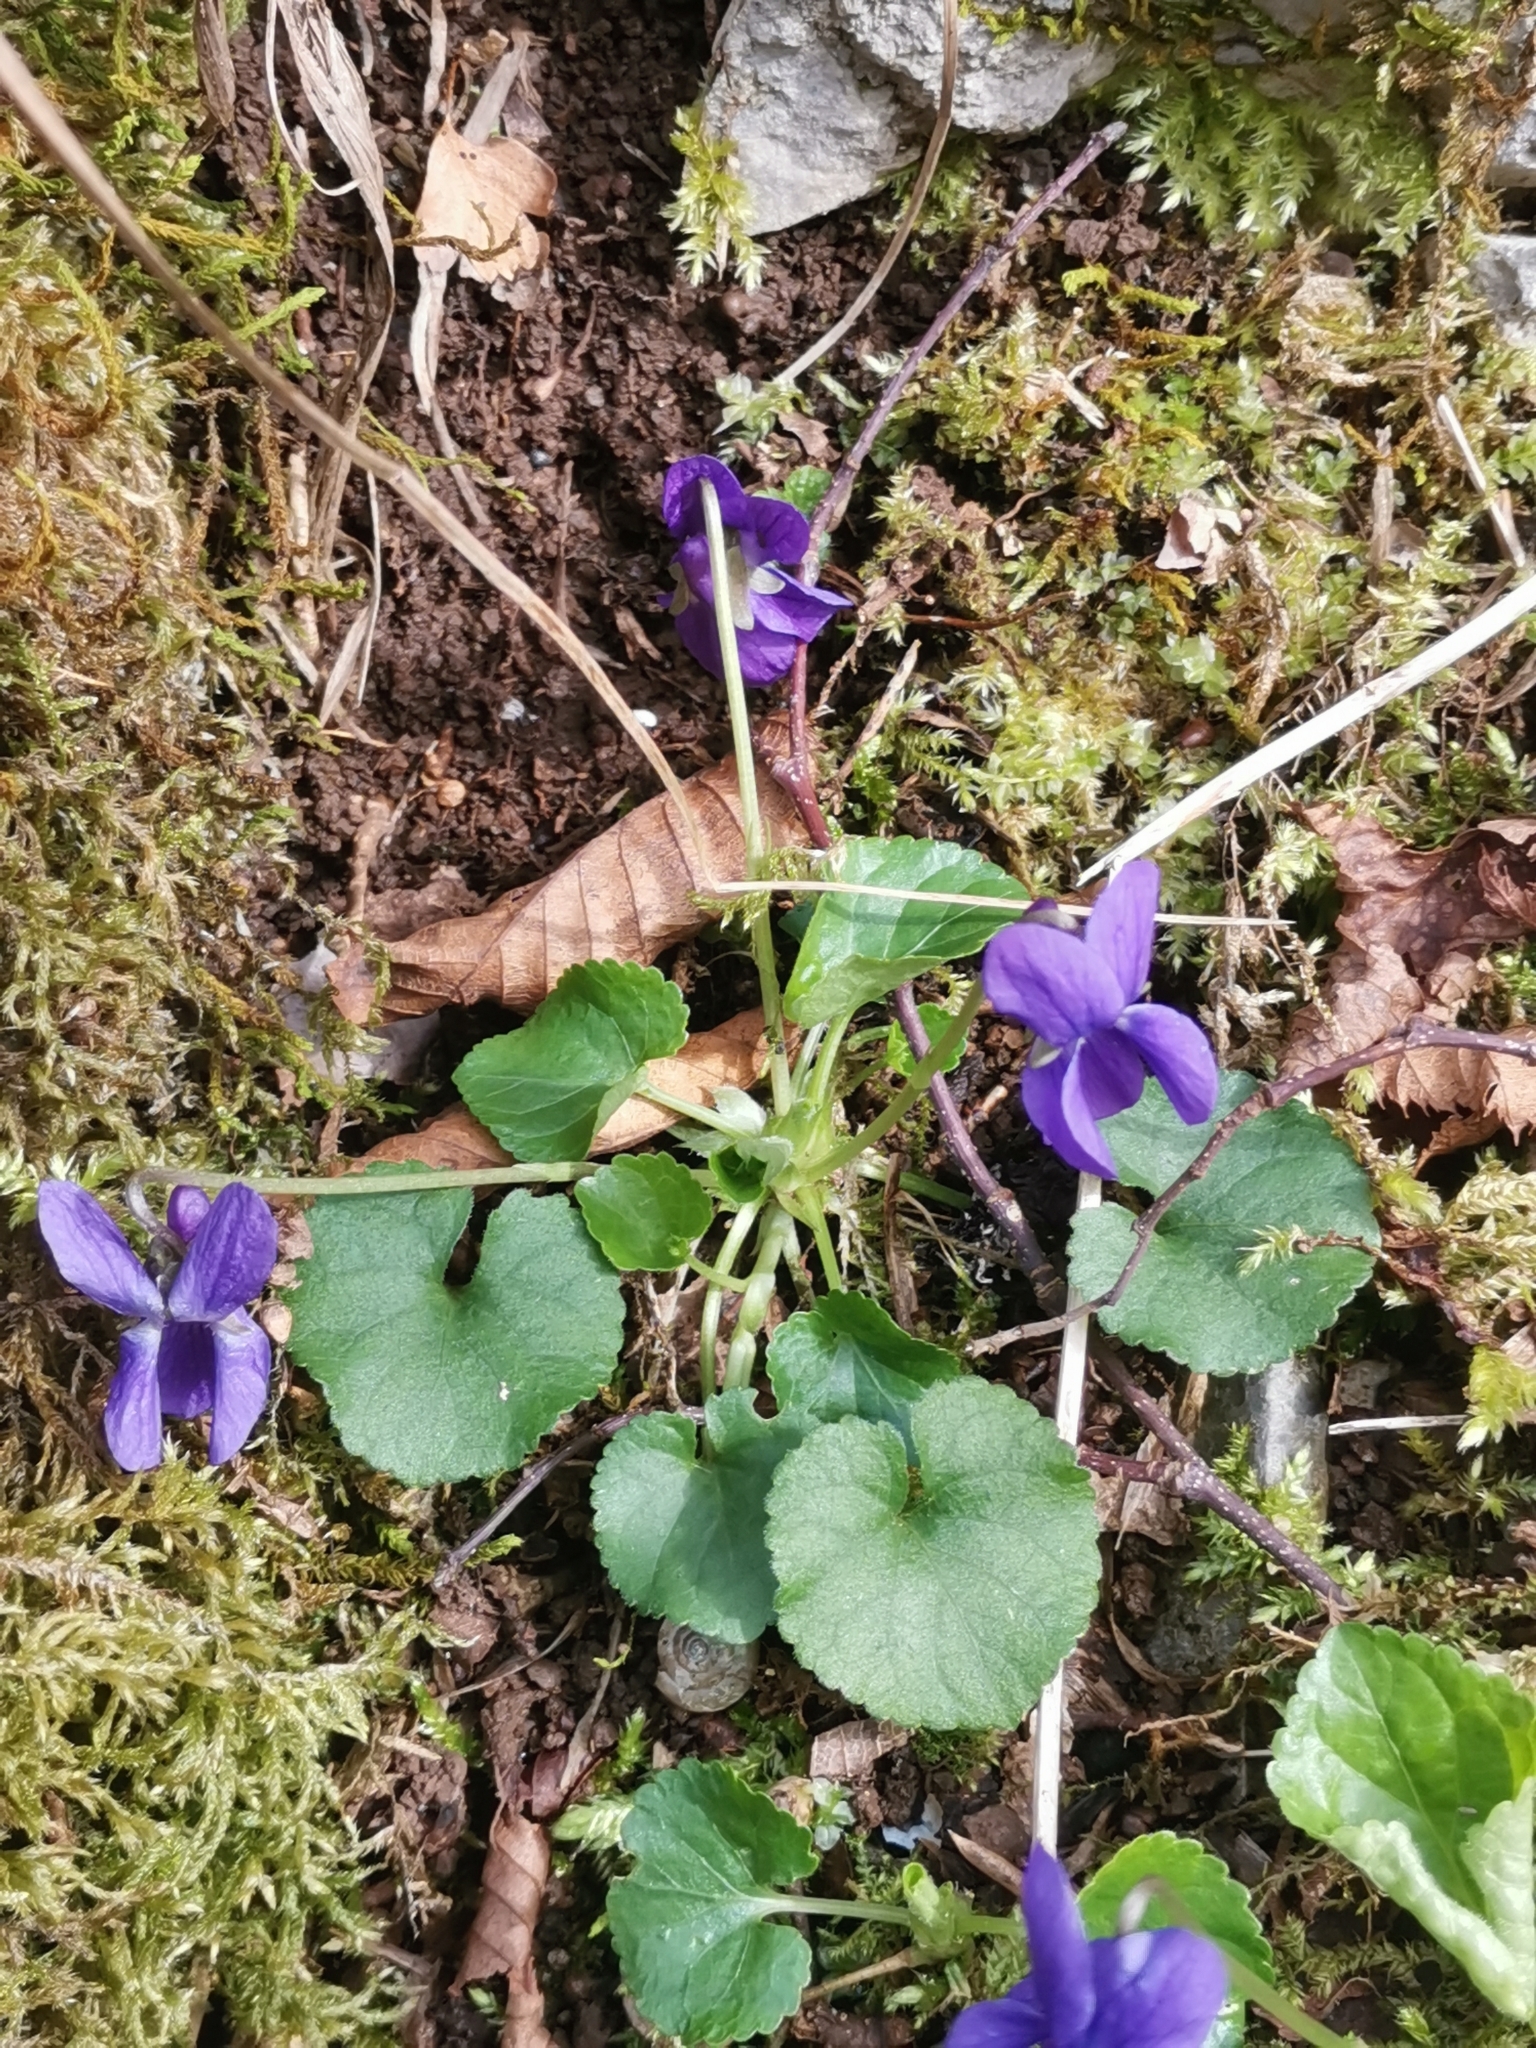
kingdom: Plantae
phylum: Tracheophyta
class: Magnoliopsida
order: Malpighiales
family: Violaceae
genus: Viola
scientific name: Viola odorata
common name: Sweet violet
